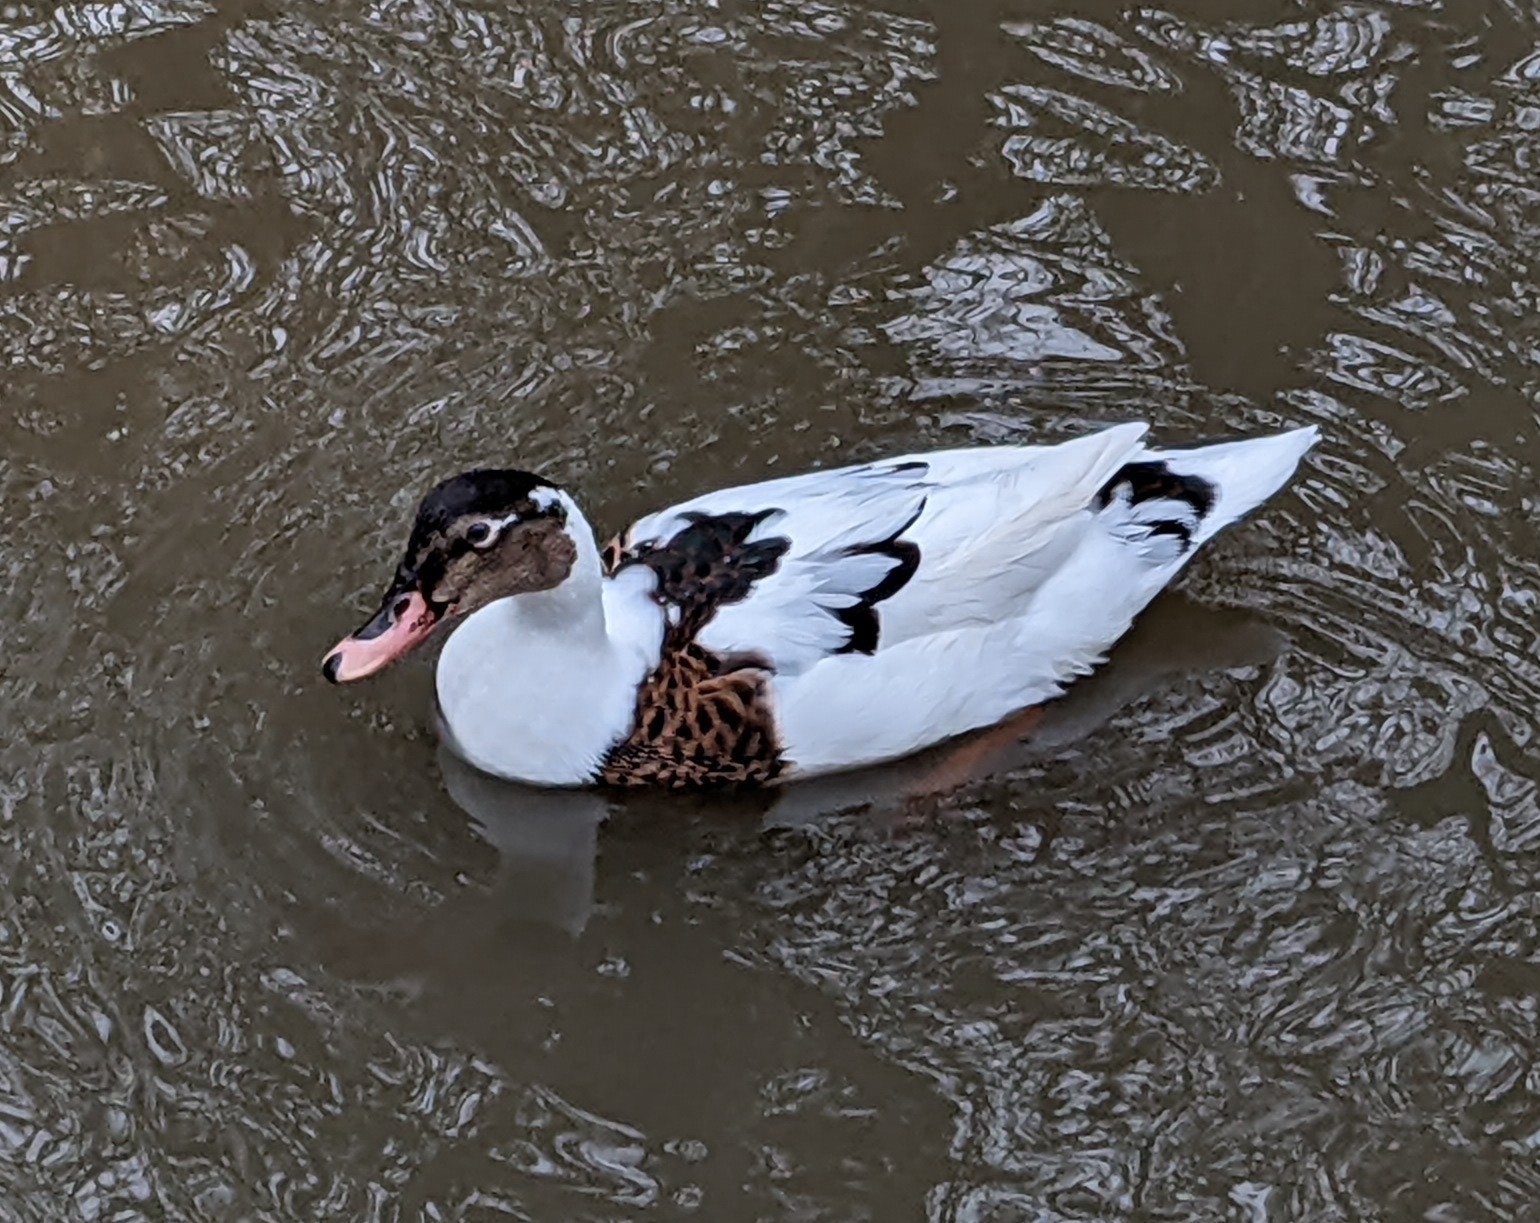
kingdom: Animalia
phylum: Chordata
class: Aves
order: Anseriformes
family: Anatidae
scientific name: Anatidae
